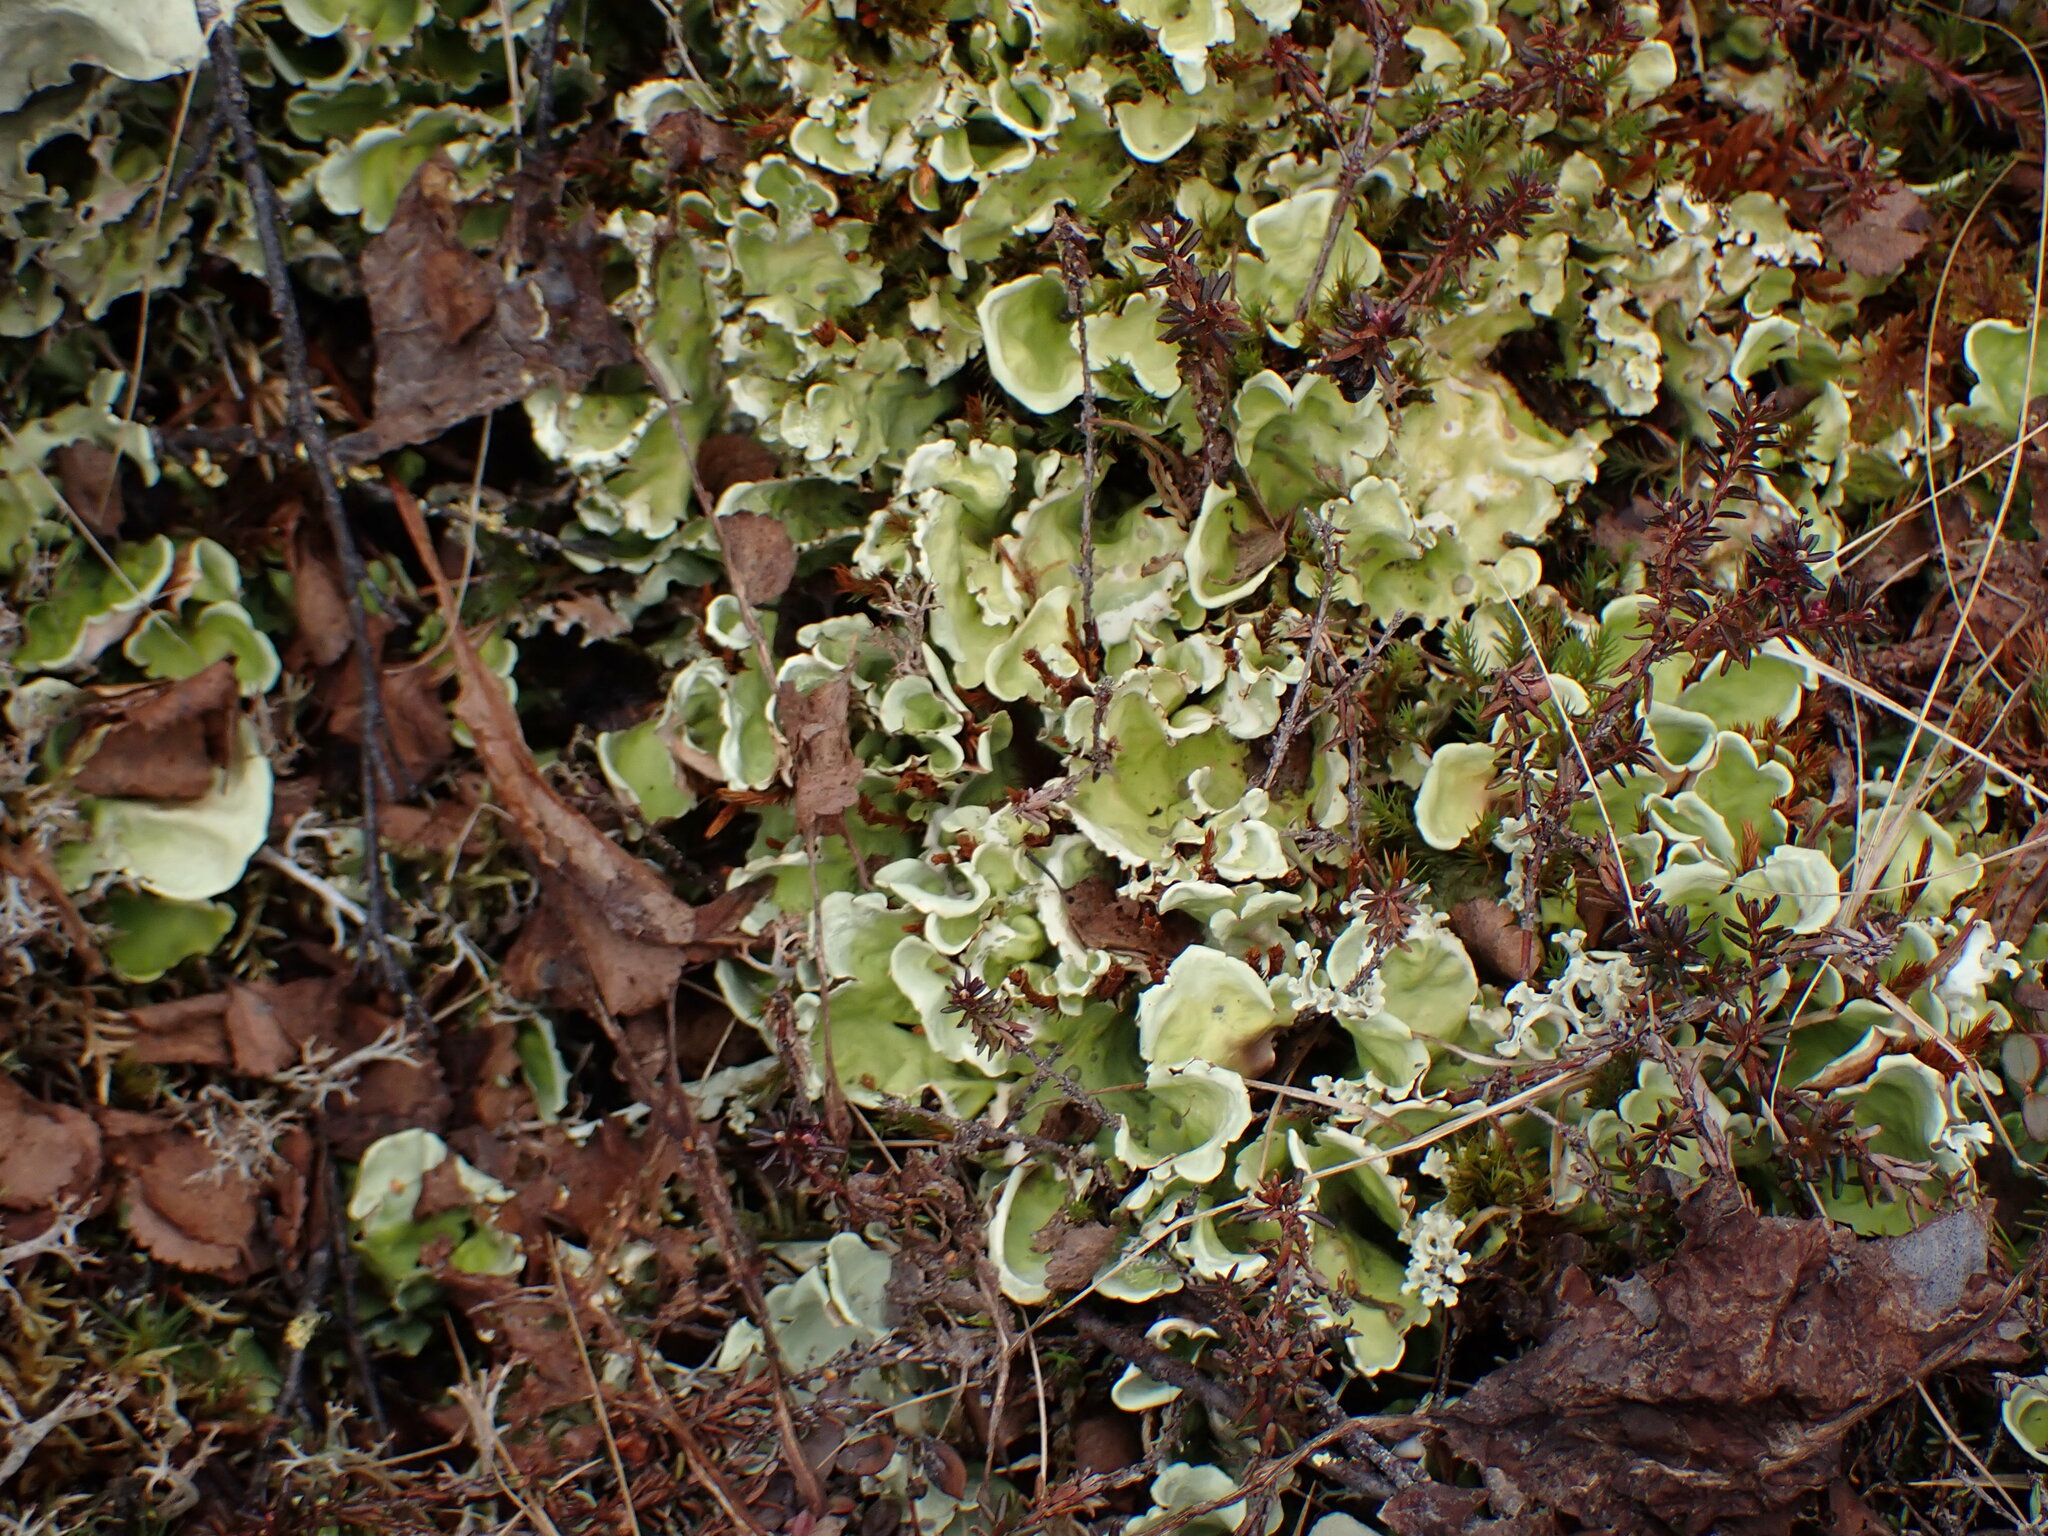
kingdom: Fungi
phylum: Ascomycota
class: Lecanoromycetes
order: Peltigerales
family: Nephromataceae
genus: Nephroma
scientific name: Nephroma arcticum
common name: Arctic kidney-lichen
